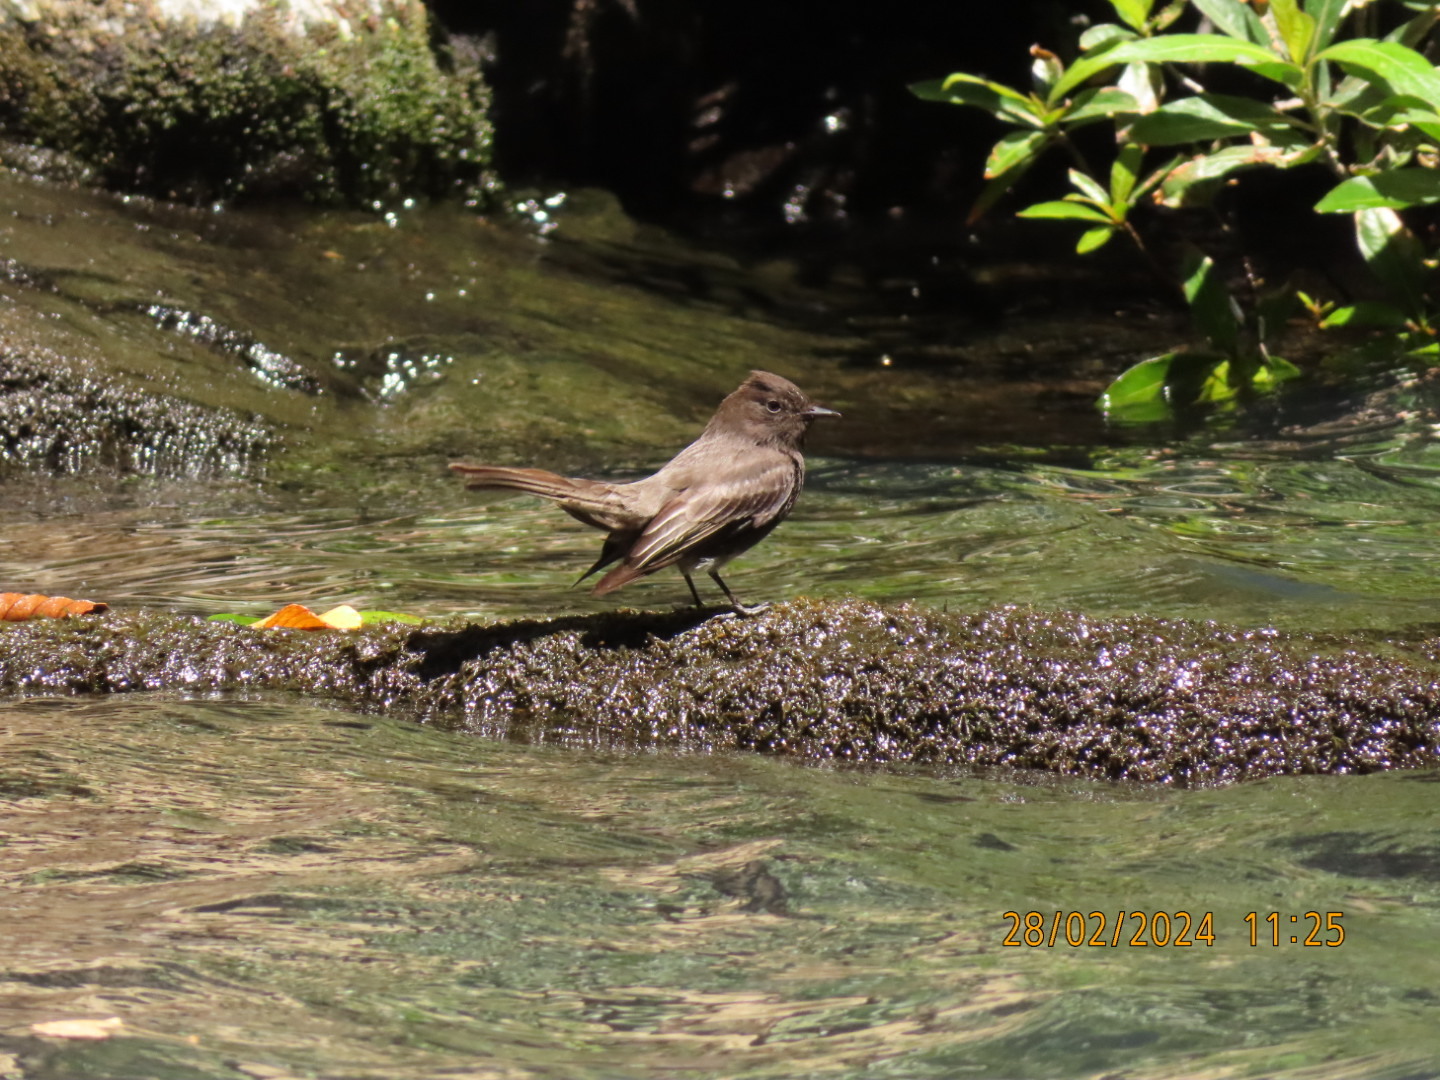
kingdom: Animalia
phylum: Chordata
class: Aves
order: Passeriformes
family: Tyrannidae
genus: Sayornis
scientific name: Sayornis nigricans
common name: Black phoebe
